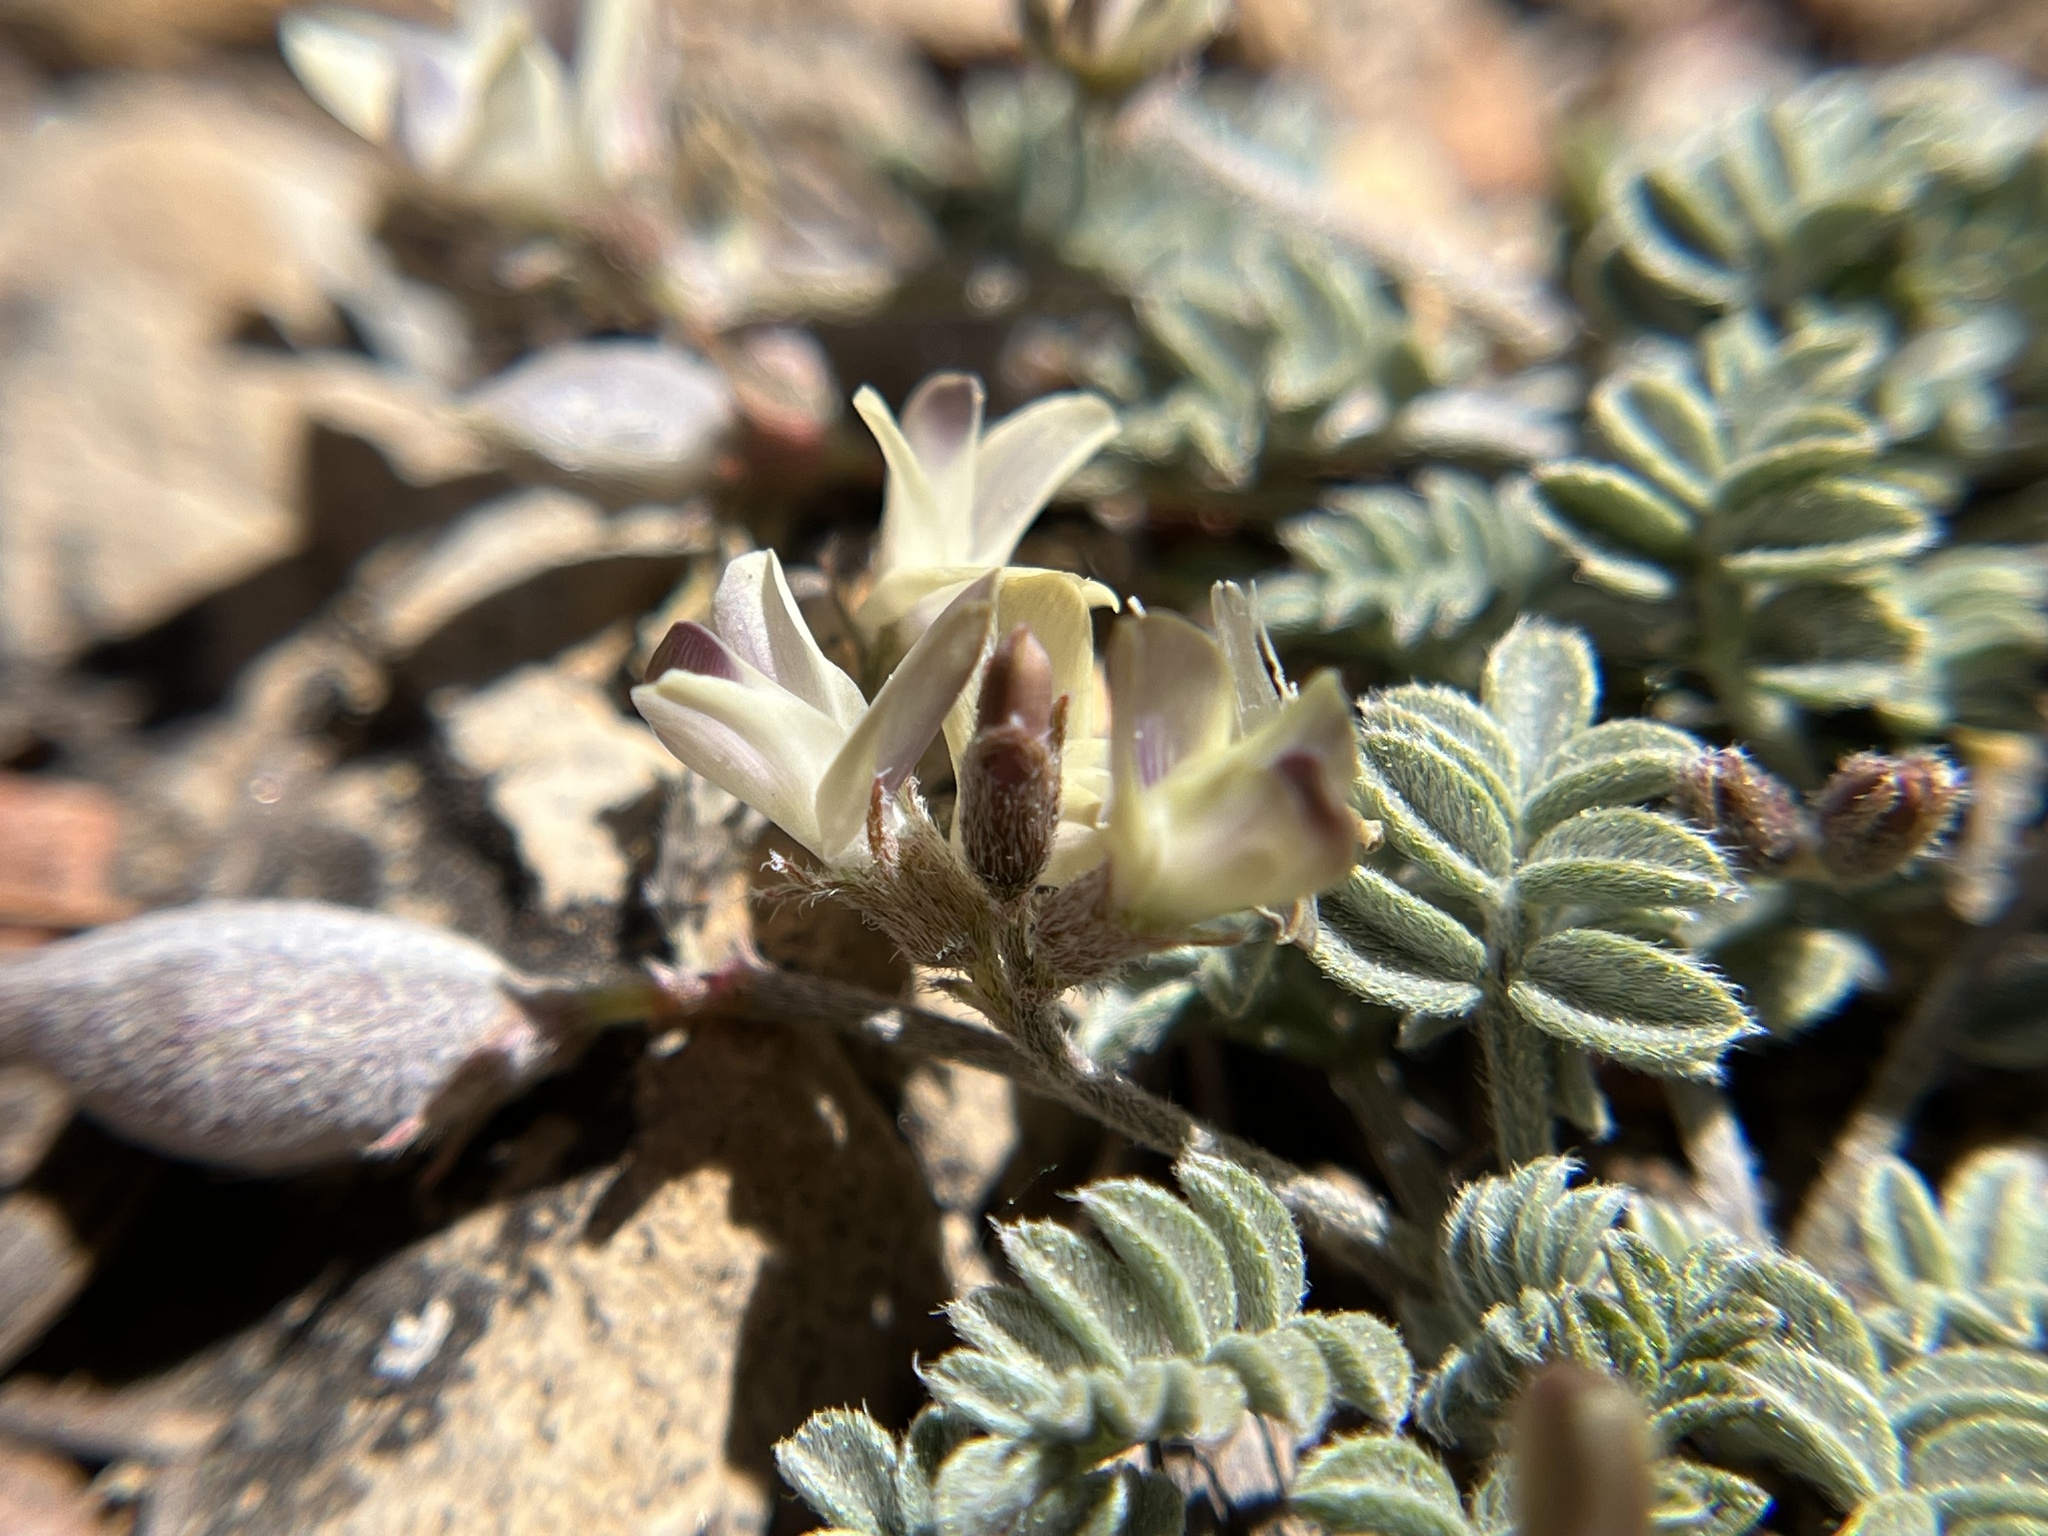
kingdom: Plantae
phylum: Tracheophyta
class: Magnoliopsida
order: Fabales
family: Fabaceae
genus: Astragalus
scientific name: Astragalus platytropis
